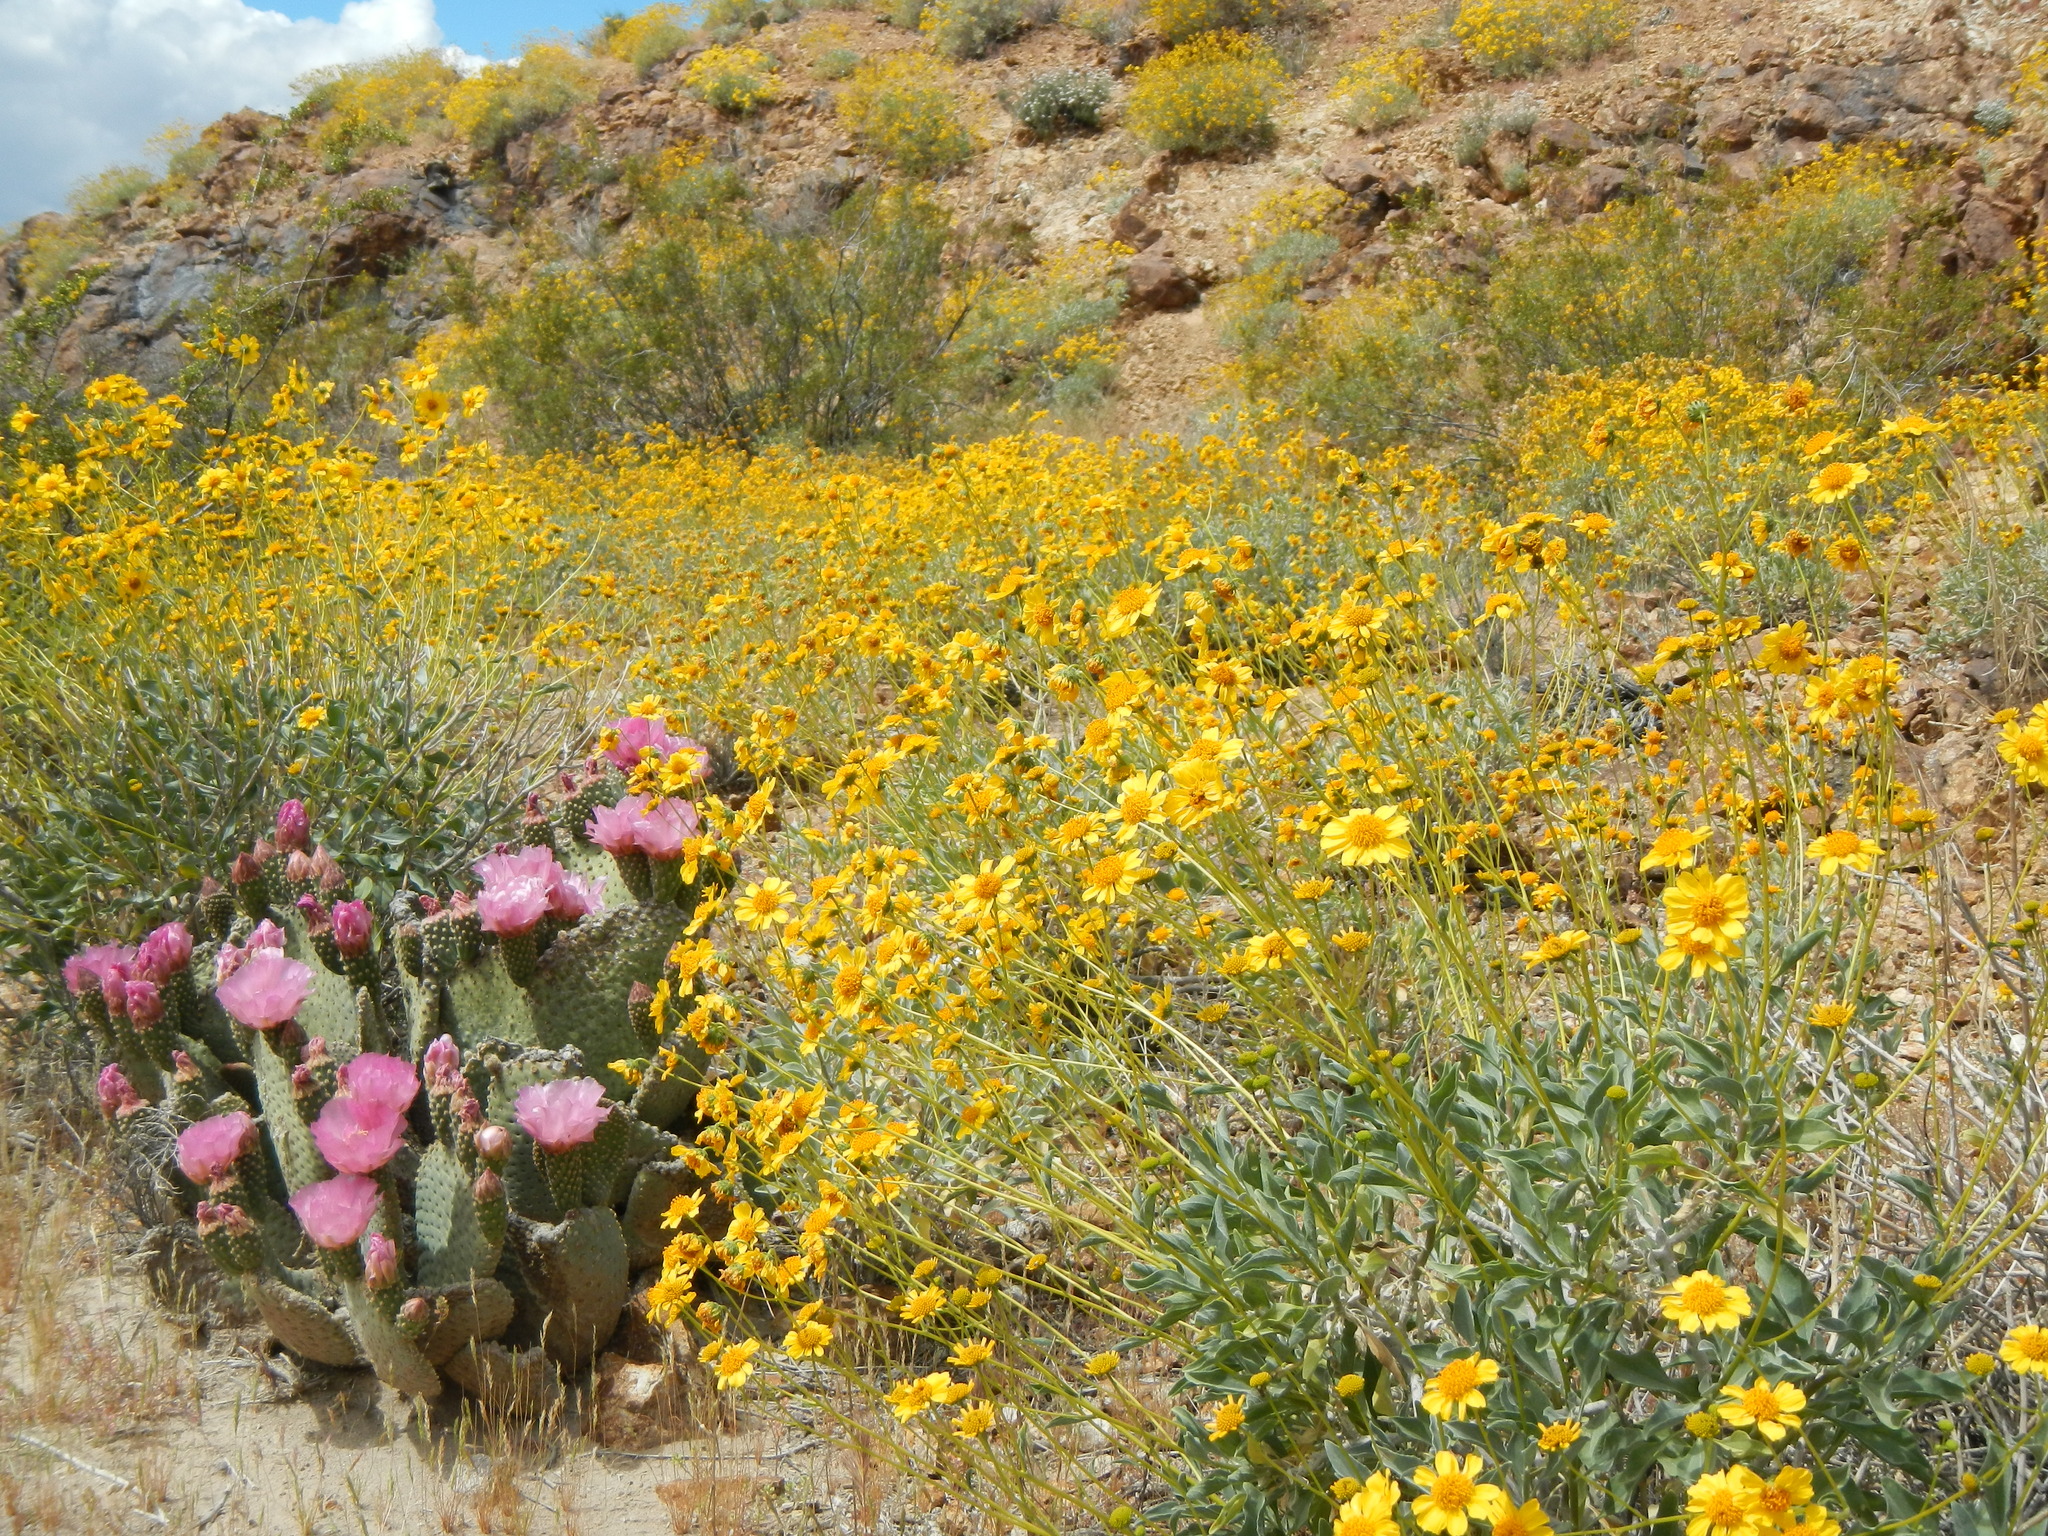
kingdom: Plantae
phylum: Tracheophyta
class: Magnoliopsida
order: Asterales
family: Asteraceae
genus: Encelia
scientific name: Encelia farinosa
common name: Brittlebush
